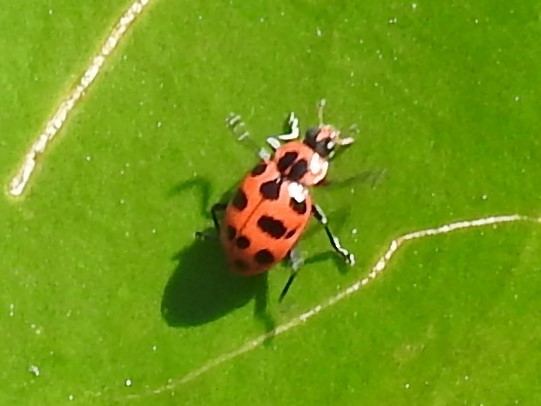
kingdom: Animalia
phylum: Arthropoda
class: Insecta
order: Coleoptera
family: Coccinellidae
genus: Coleomegilla
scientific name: Coleomegilla maculata
